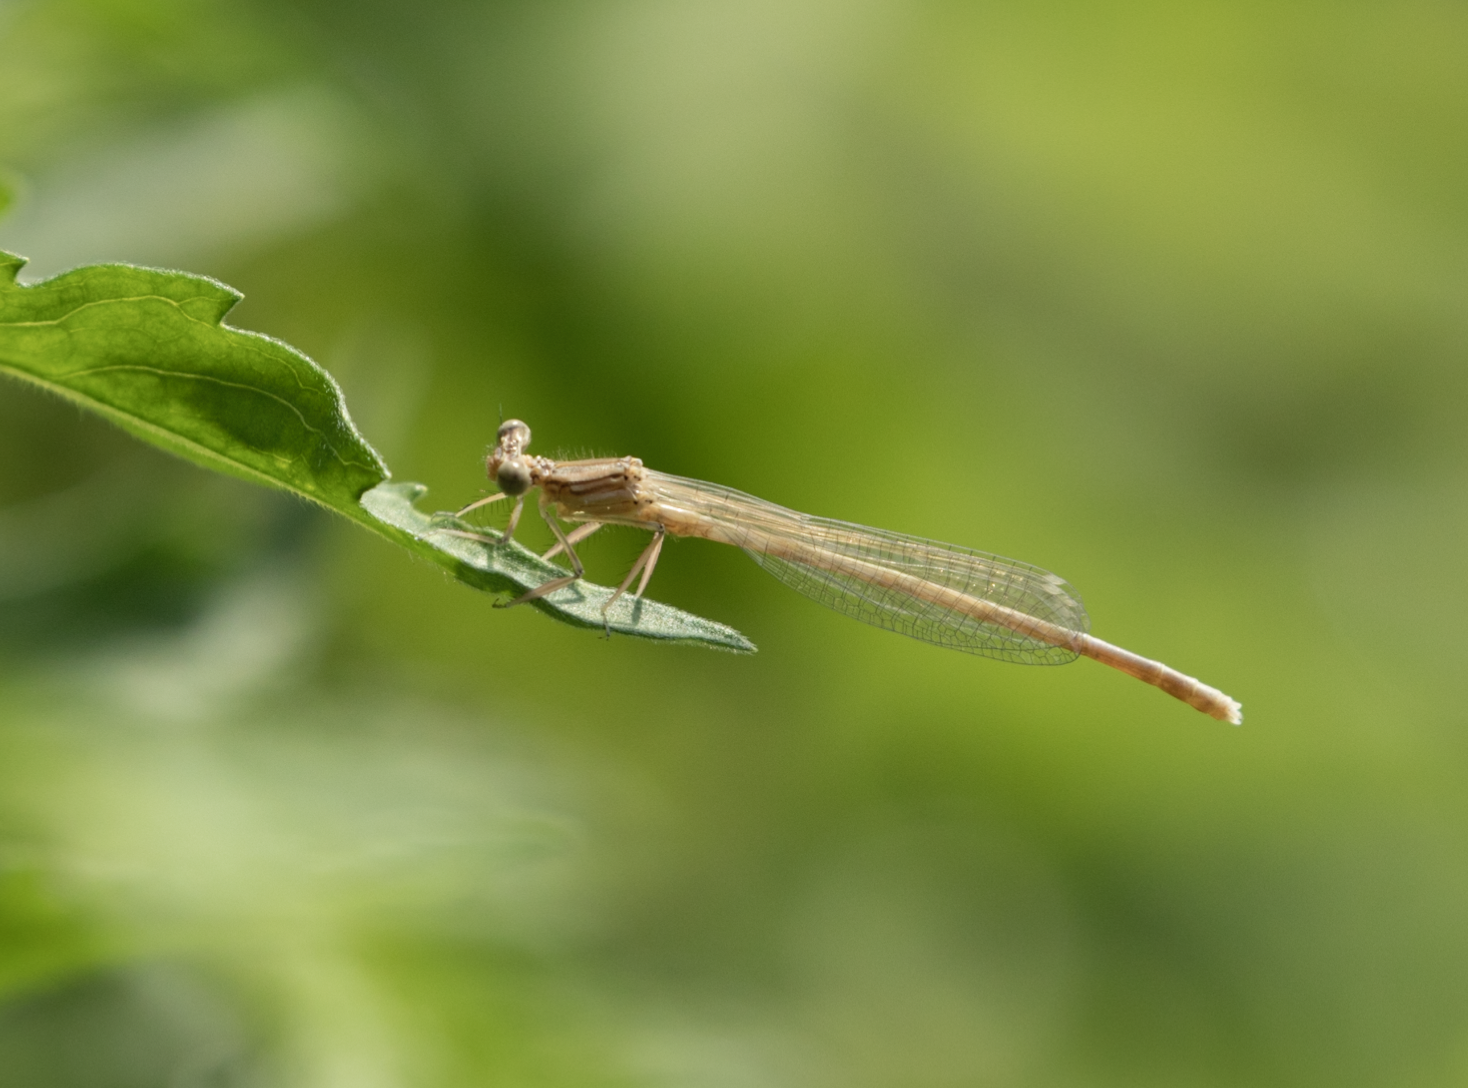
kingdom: Animalia
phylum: Arthropoda
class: Insecta
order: Odonata
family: Platycnemididae
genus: Platycnemis
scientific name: Platycnemis pennipes
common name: White-legged damselfly
